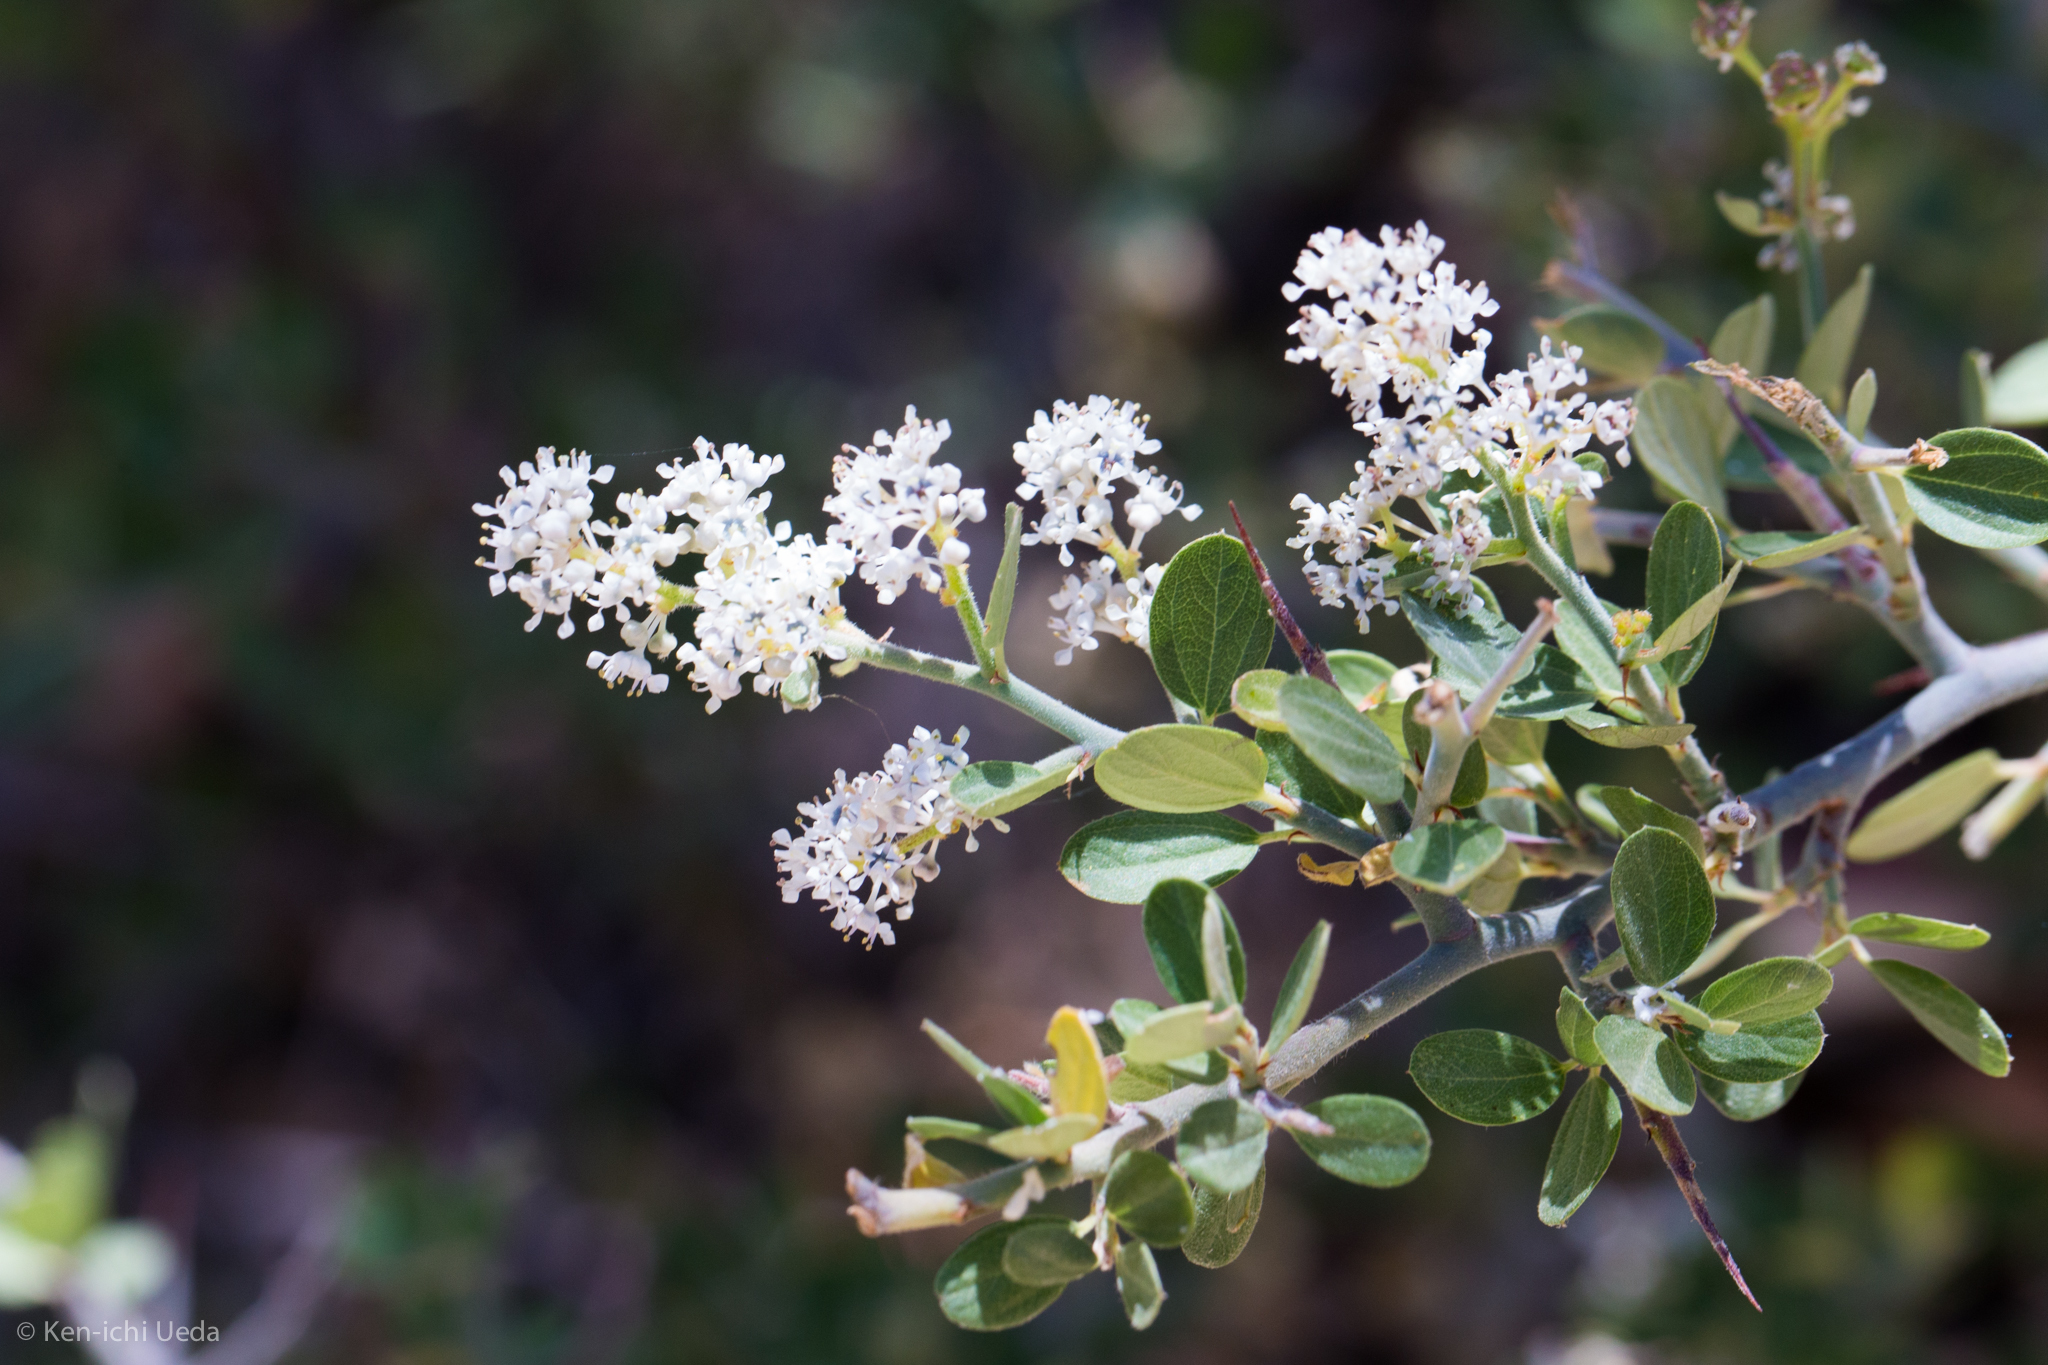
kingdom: Plantae
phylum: Tracheophyta
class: Magnoliopsida
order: Rosales
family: Rhamnaceae
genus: Ceanothus
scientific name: Ceanothus fendleri
